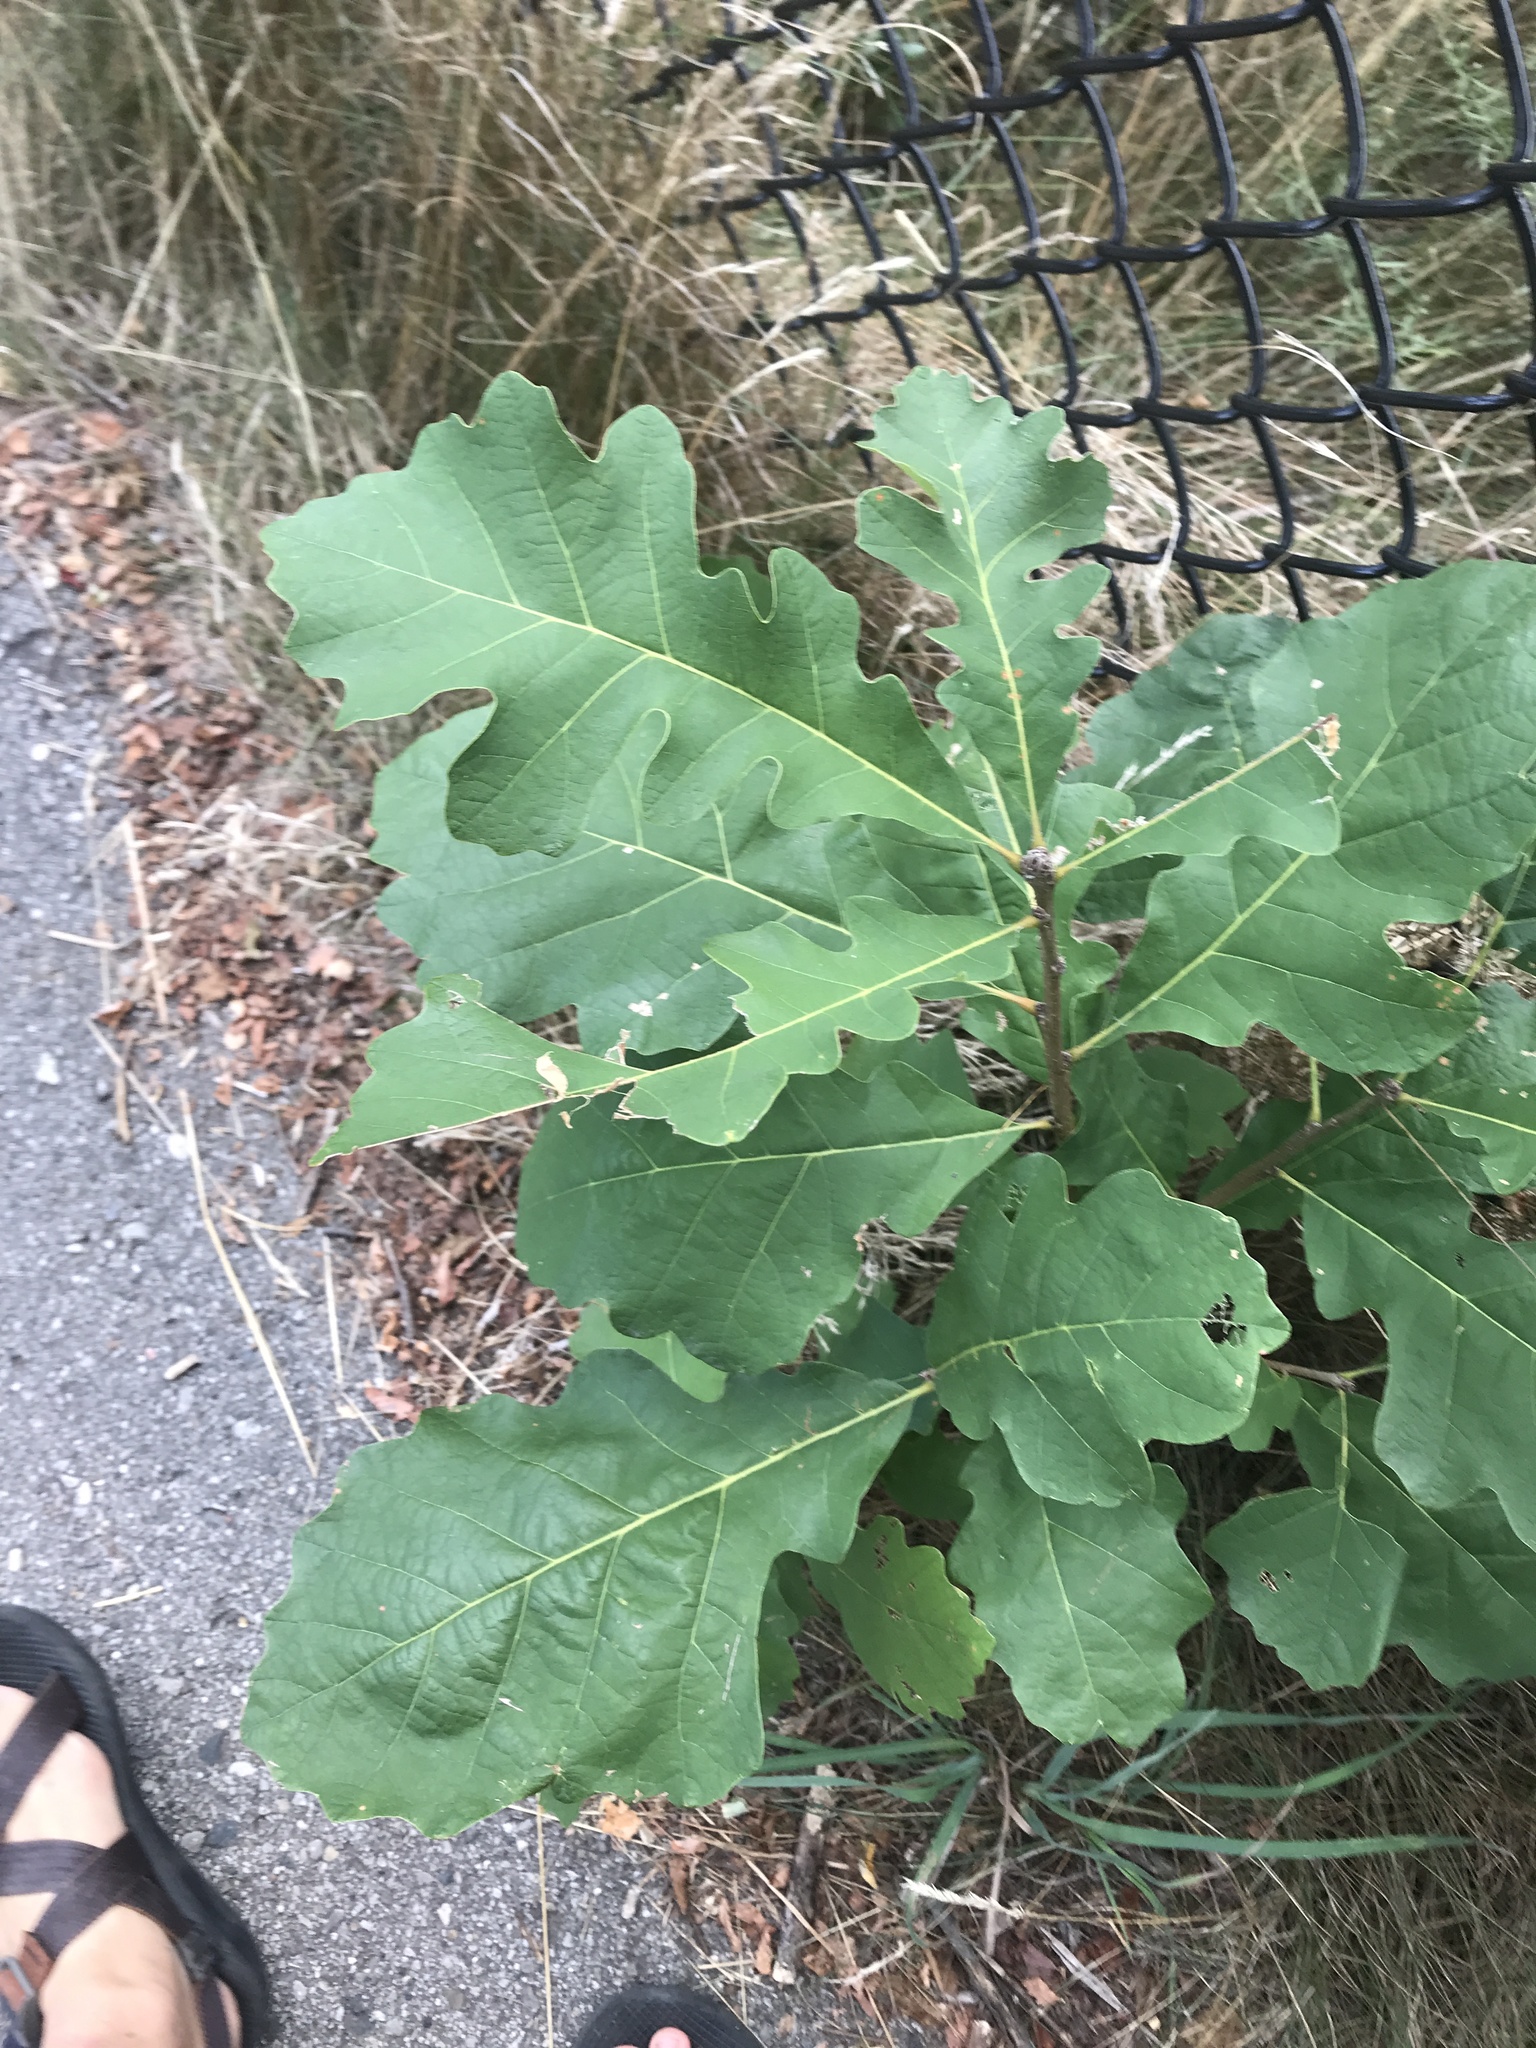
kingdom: Plantae
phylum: Tracheophyta
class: Magnoliopsida
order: Fagales
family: Fagaceae
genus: Quercus
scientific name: Quercus macrocarpa
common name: Bur oak
